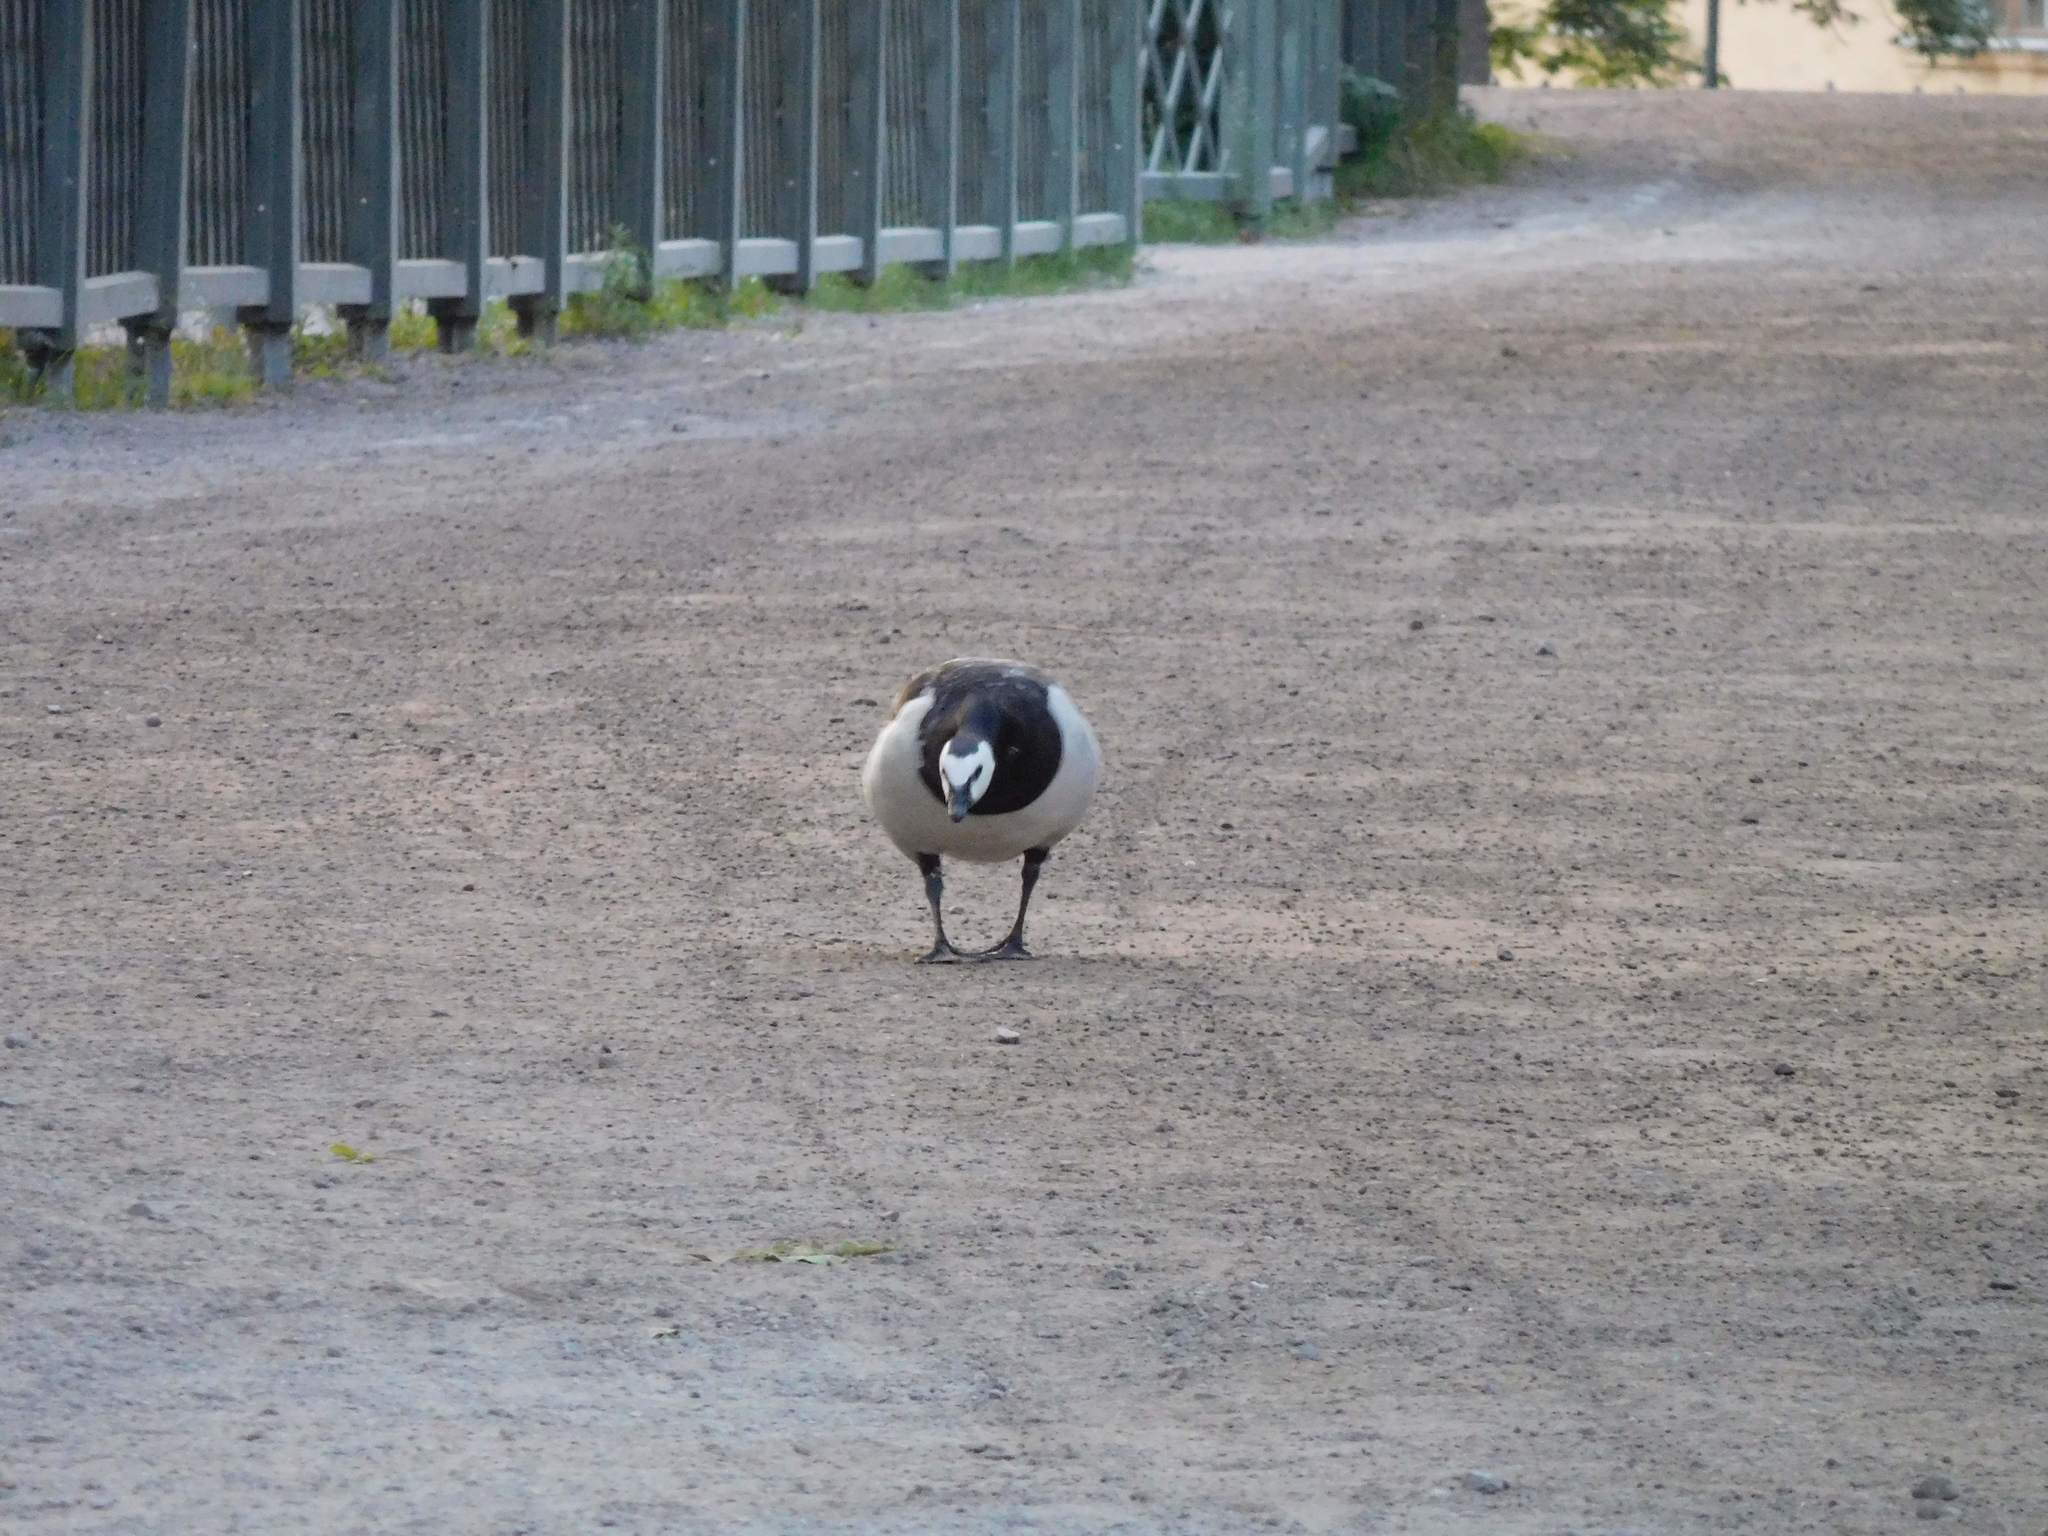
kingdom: Animalia
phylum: Chordata
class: Aves
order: Anseriformes
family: Anatidae
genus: Branta
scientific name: Branta leucopsis
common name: Barnacle goose
